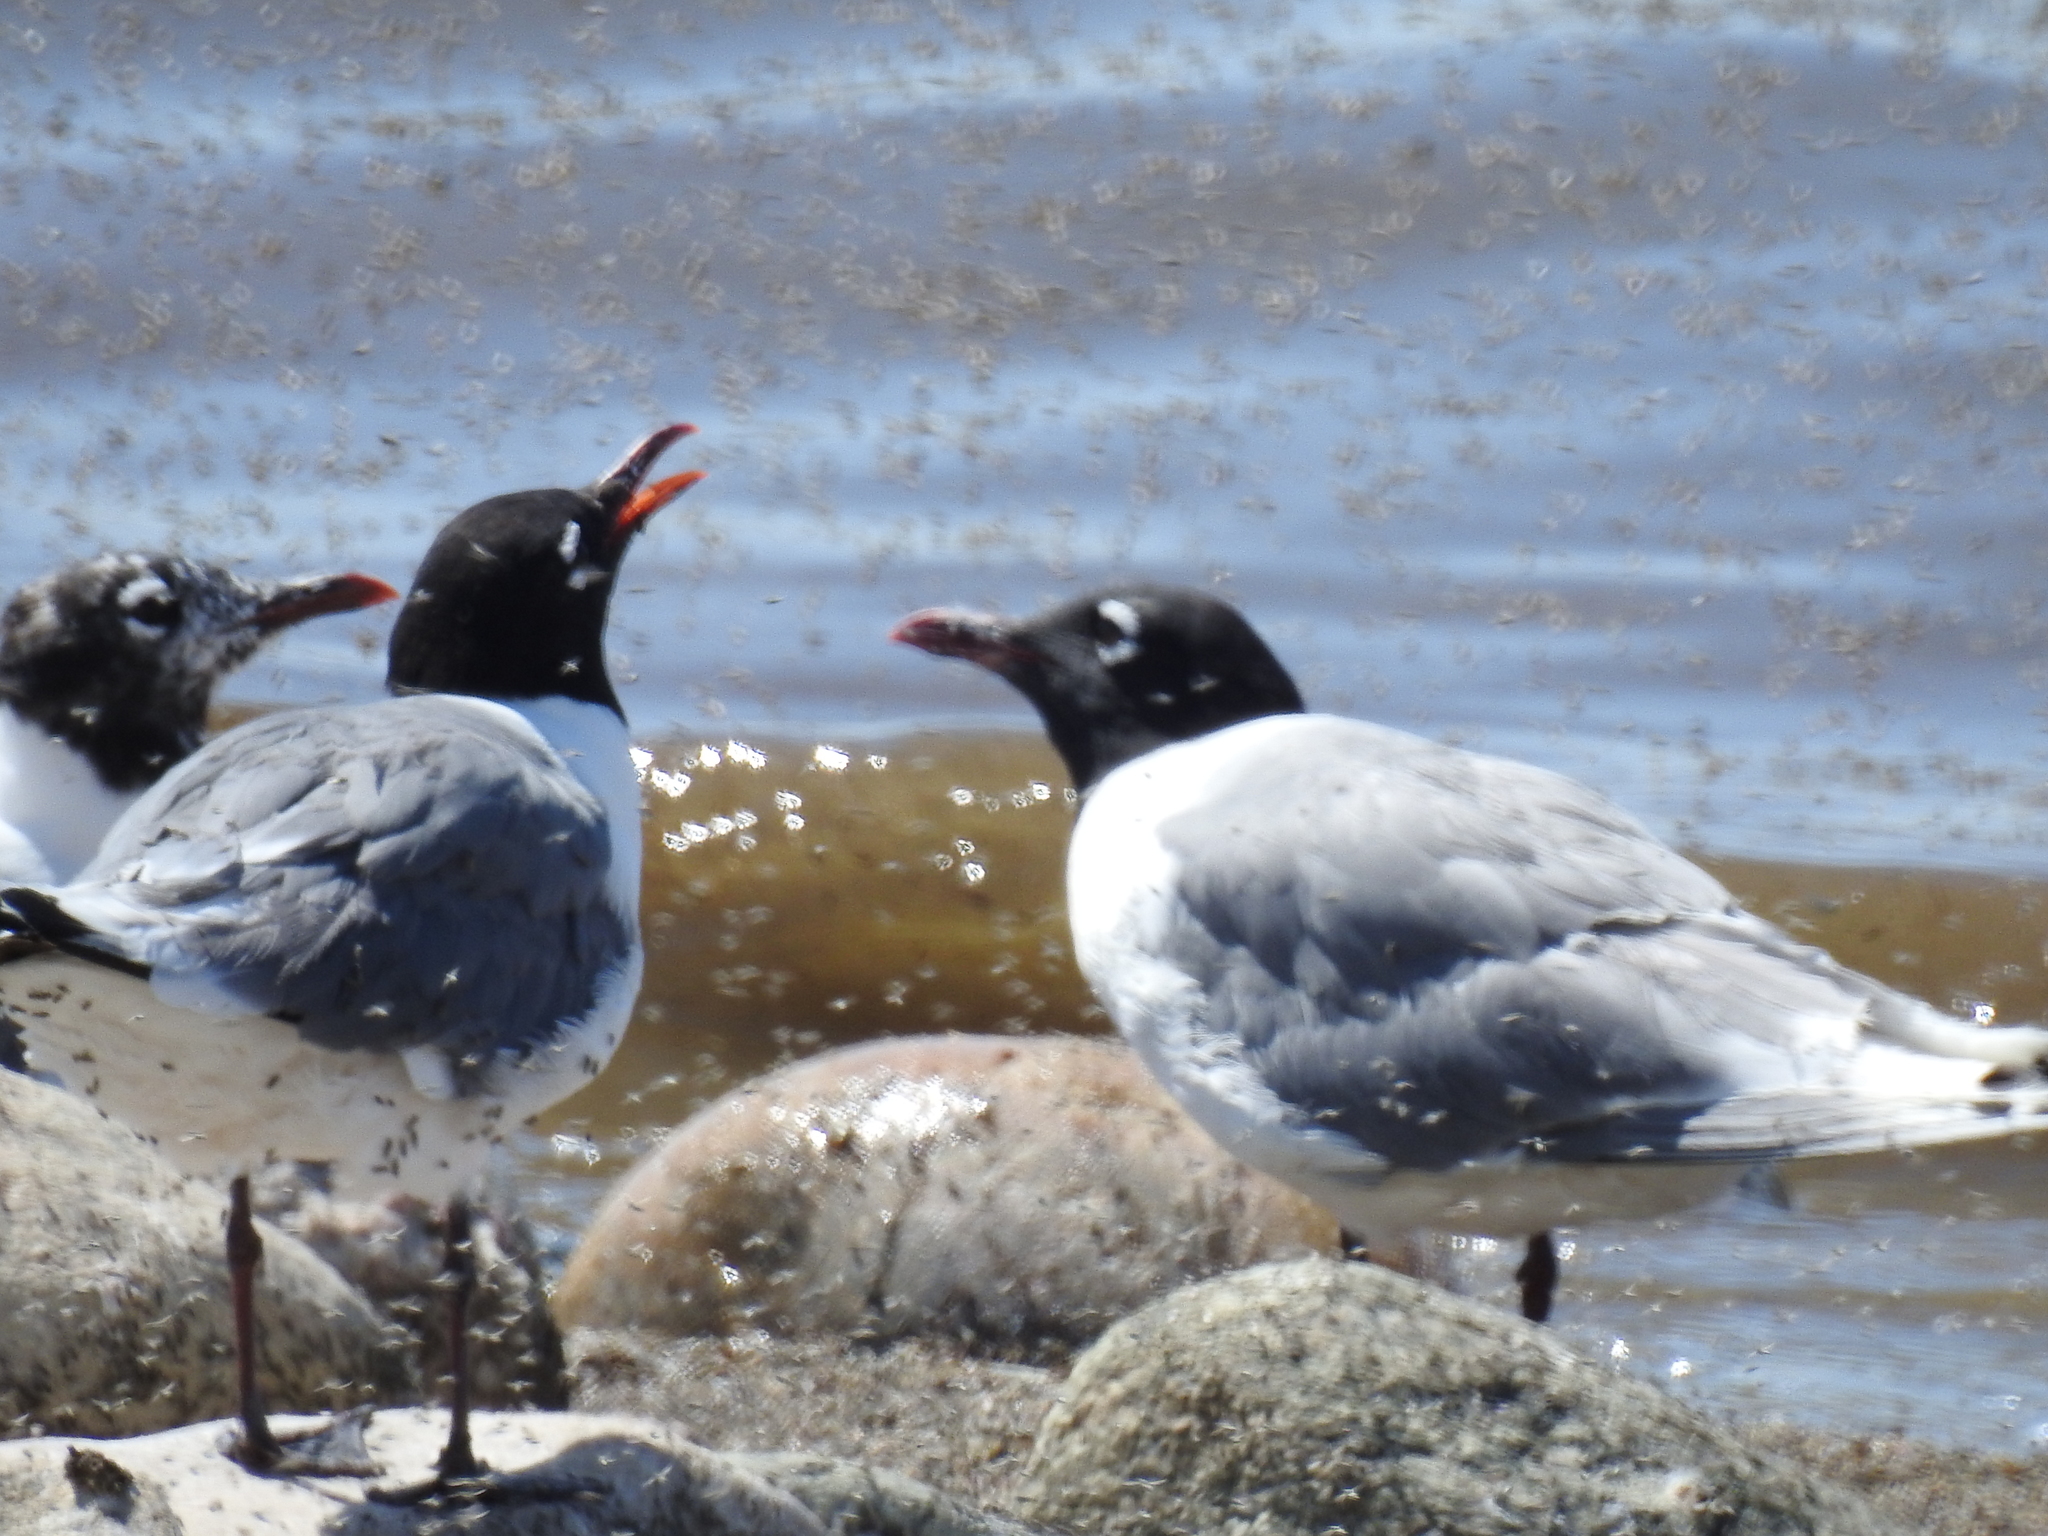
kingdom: Animalia
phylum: Chordata
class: Aves
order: Charadriiformes
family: Laridae
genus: Leucophaeus
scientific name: Leucophaeus pipixcan
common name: Franklin's gull
